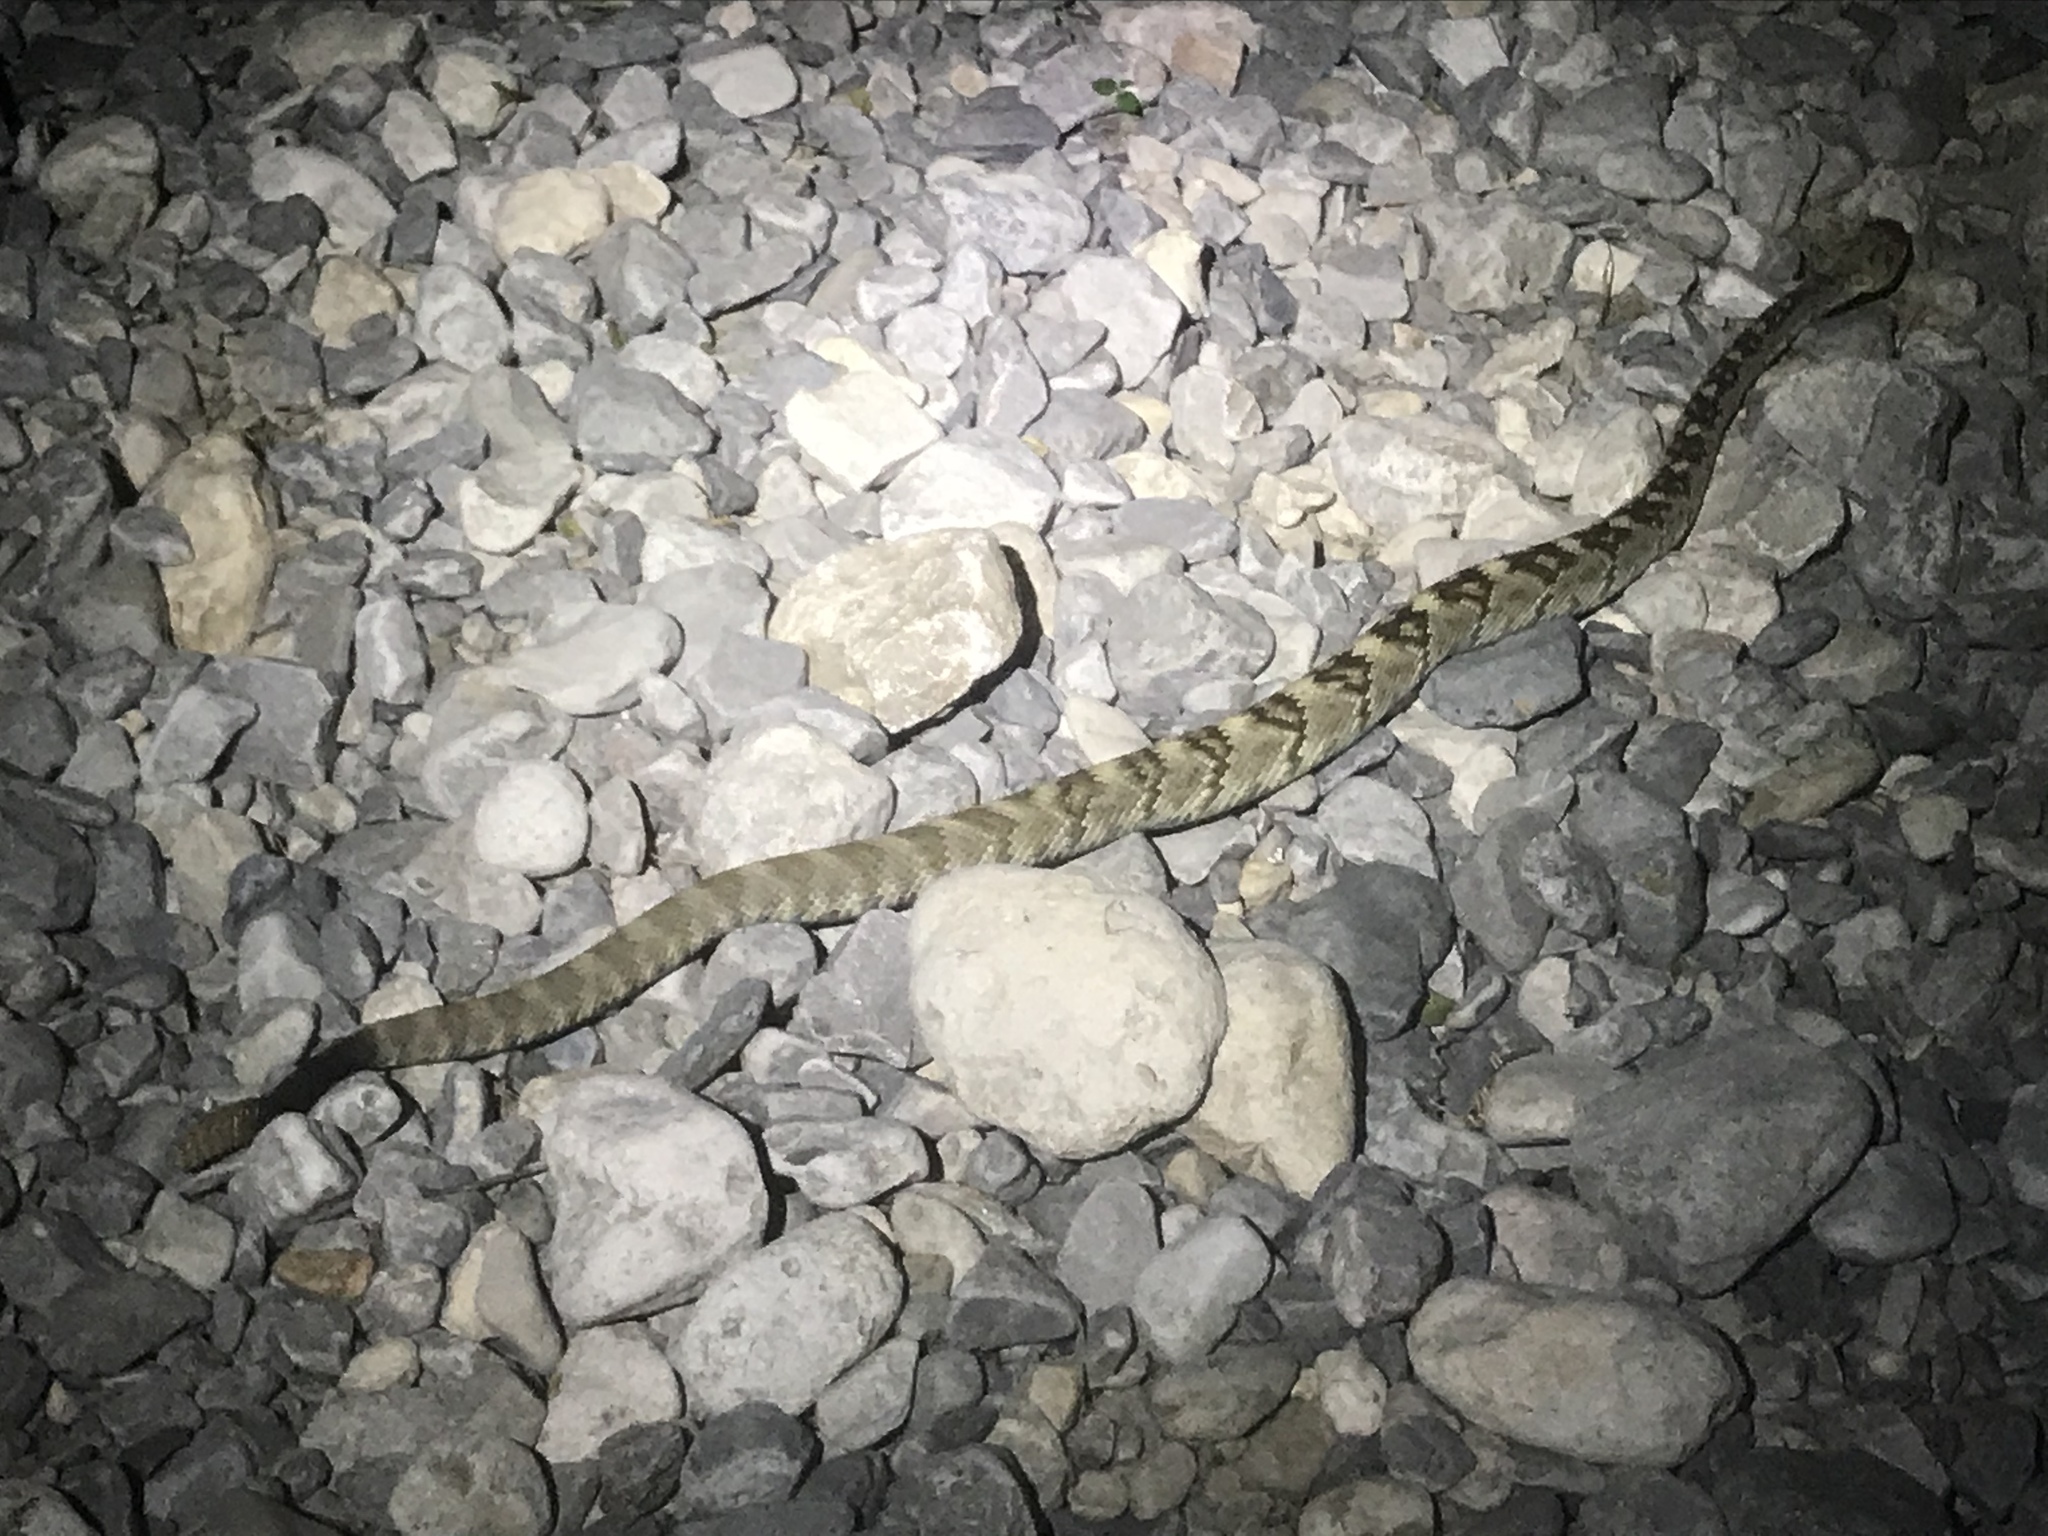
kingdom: Animalia
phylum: Chordata
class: Squamata
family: Viperidae
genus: Crotalus
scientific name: Crotalus ornatus
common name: Black-tailed rattlesnake
